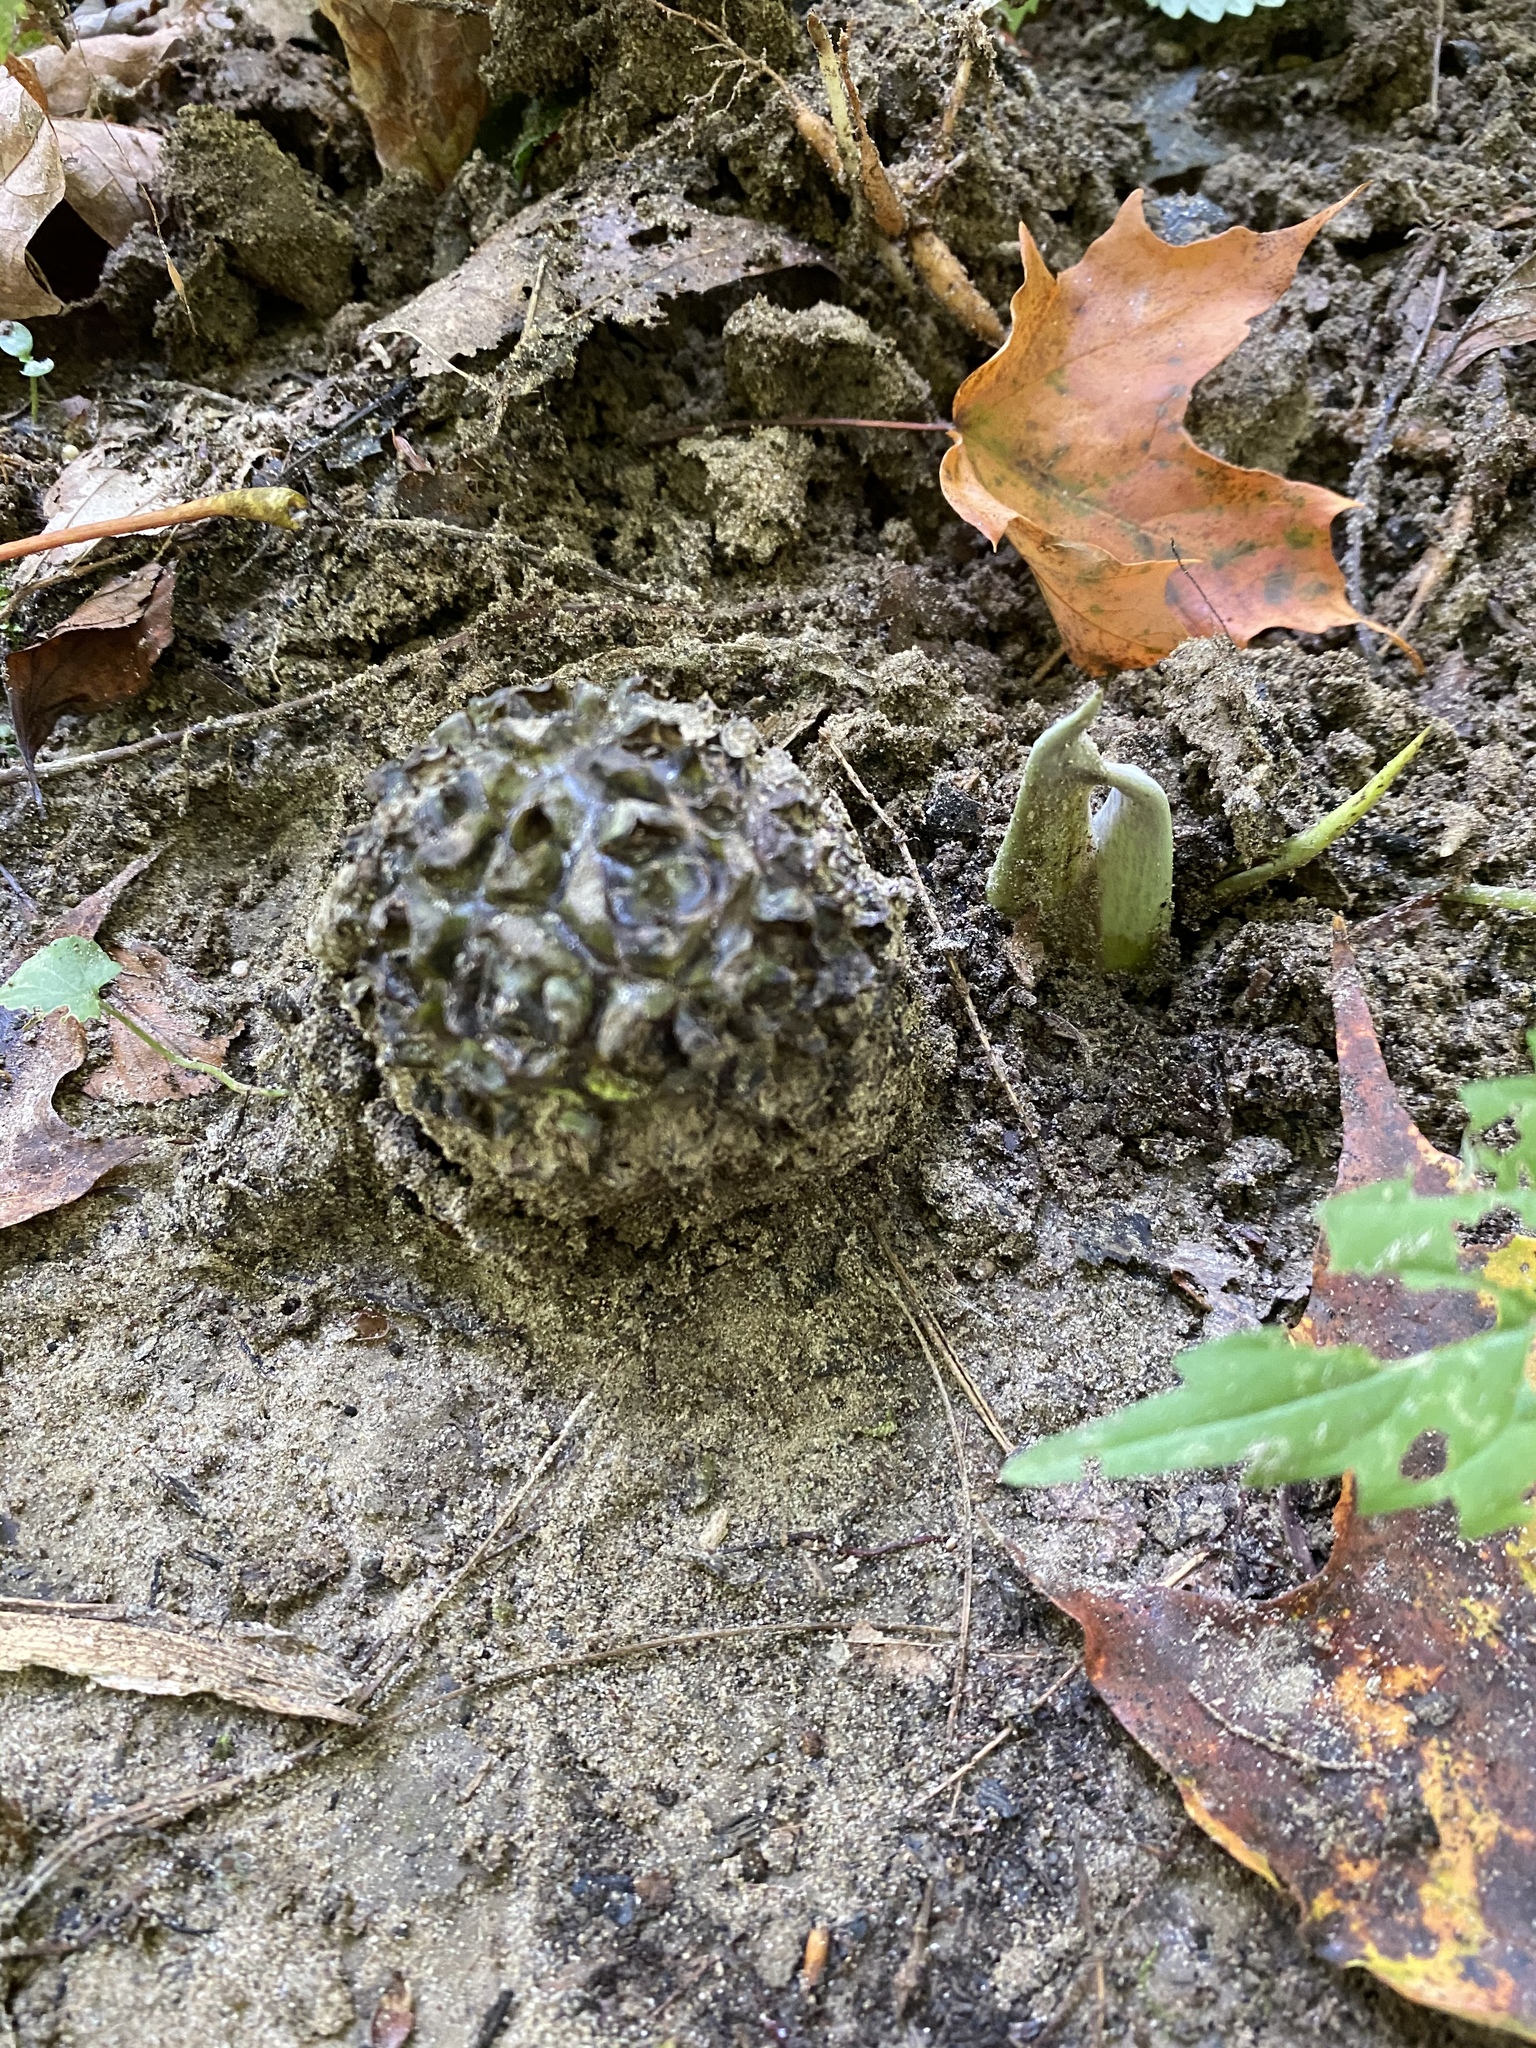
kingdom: Plantae
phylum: Tracheophyta
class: Liliopsida
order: Alismatales
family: Araceae
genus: Symplocarpus
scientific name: Symplocarpus foetidus
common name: Eastern skunk cabbage
